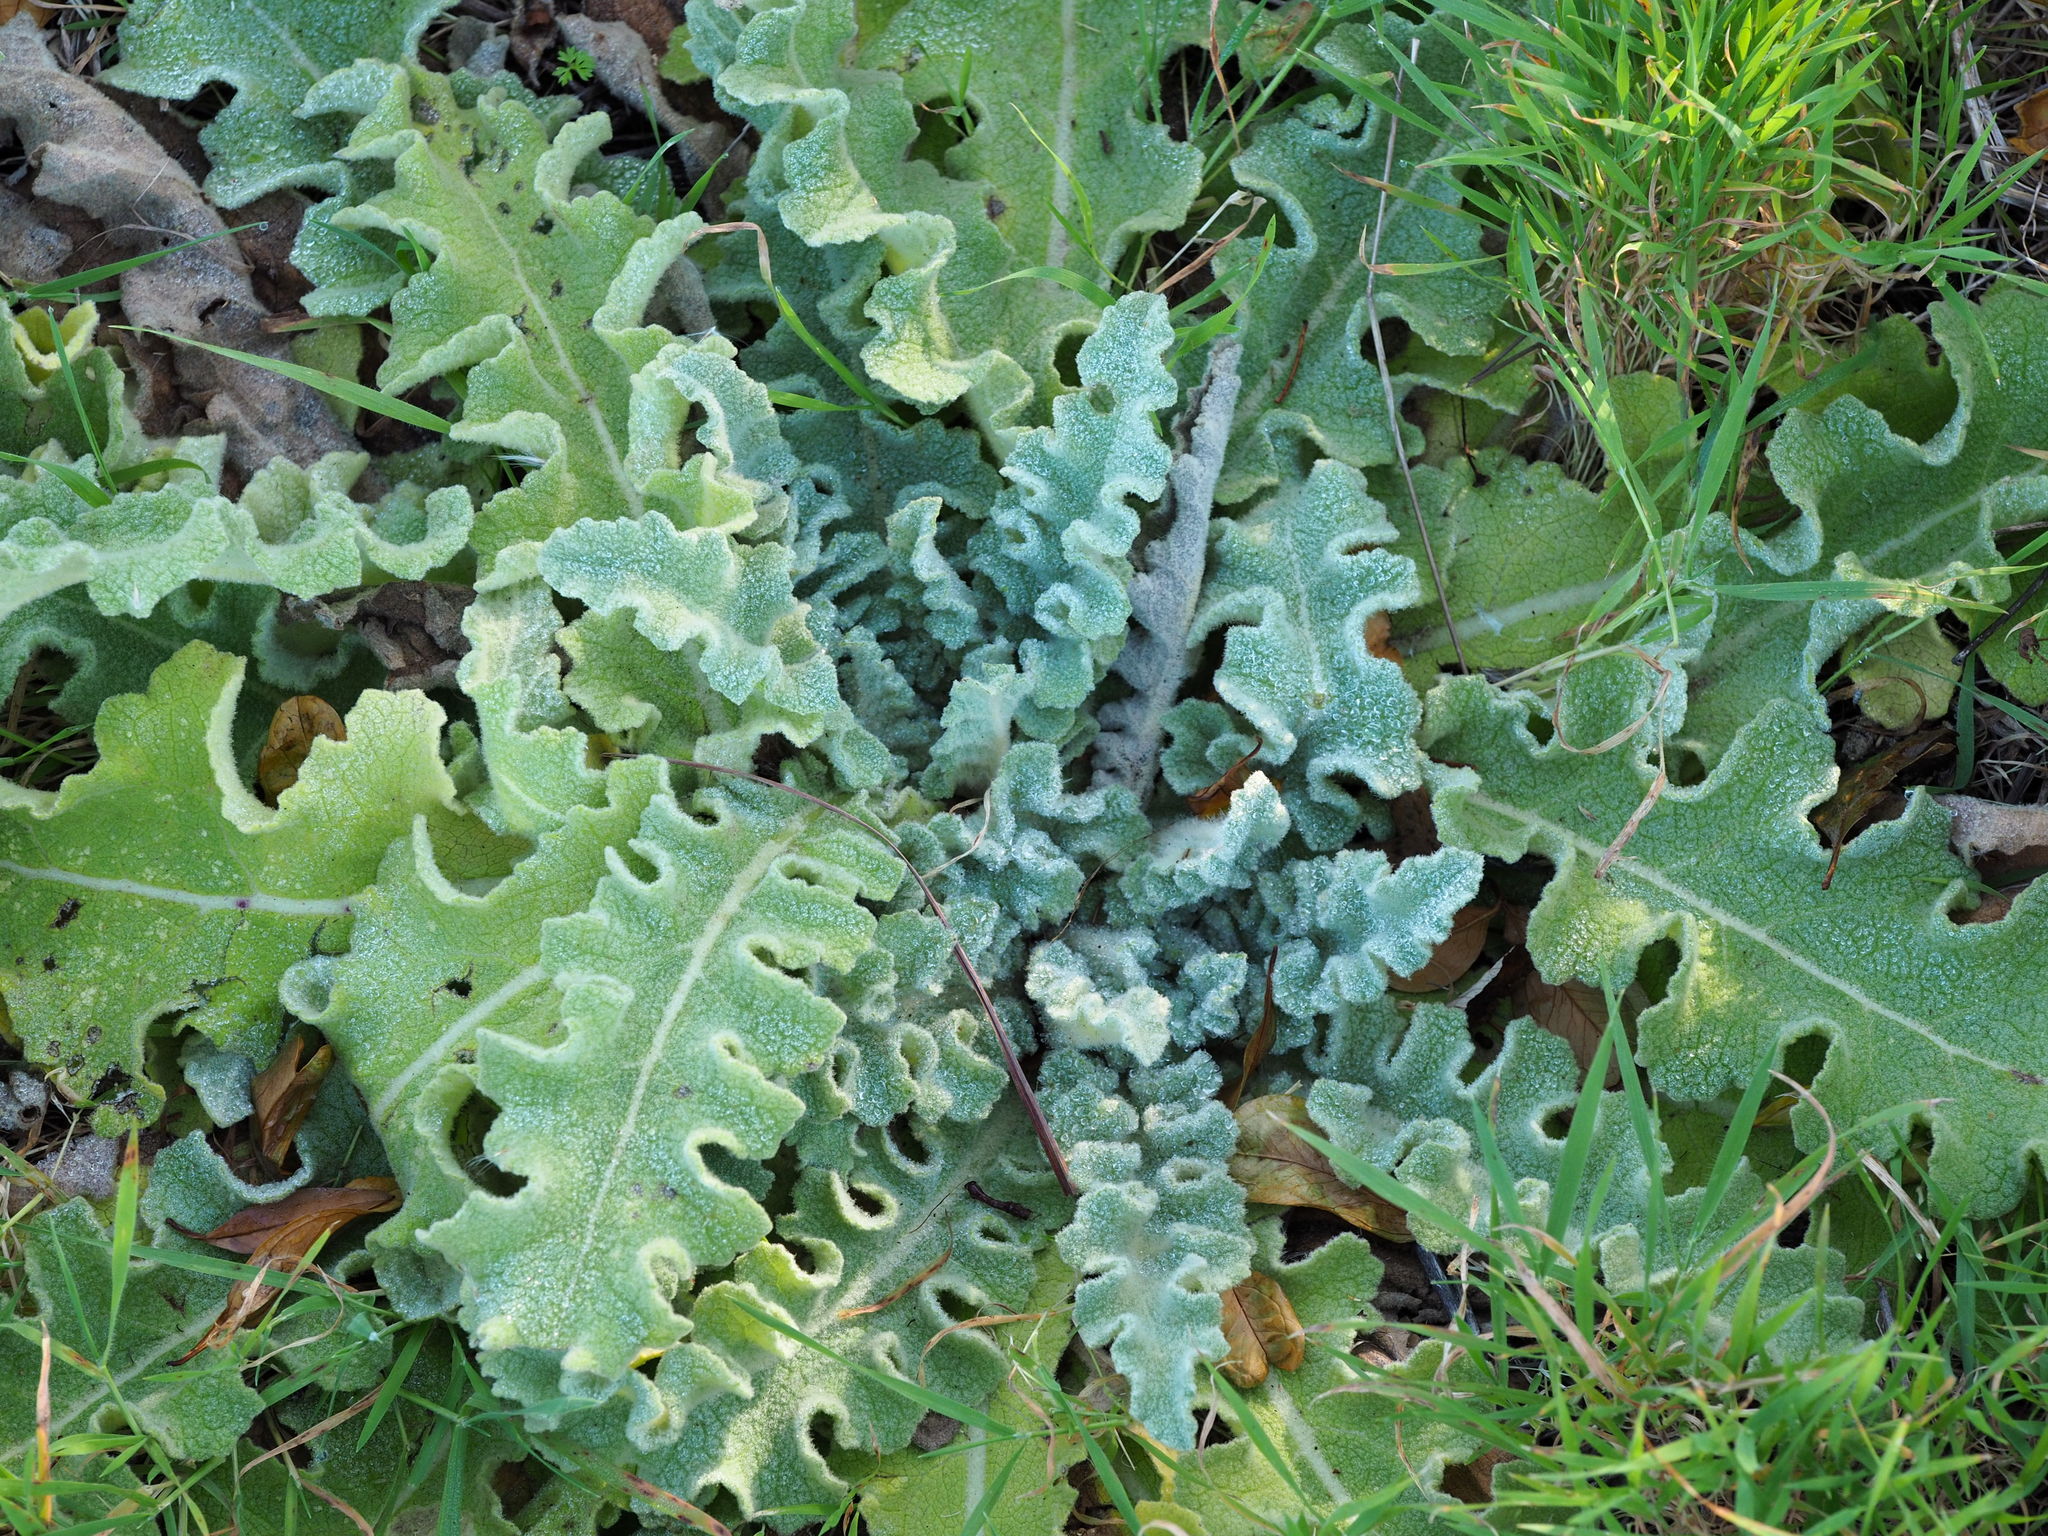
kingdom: Plantae
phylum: Tracheophyta
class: Magnoliopsida
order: Lamiales
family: Scrophulariaceae
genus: Verbascum
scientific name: Verbascum sinuatum
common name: Wavyleaf mullein
